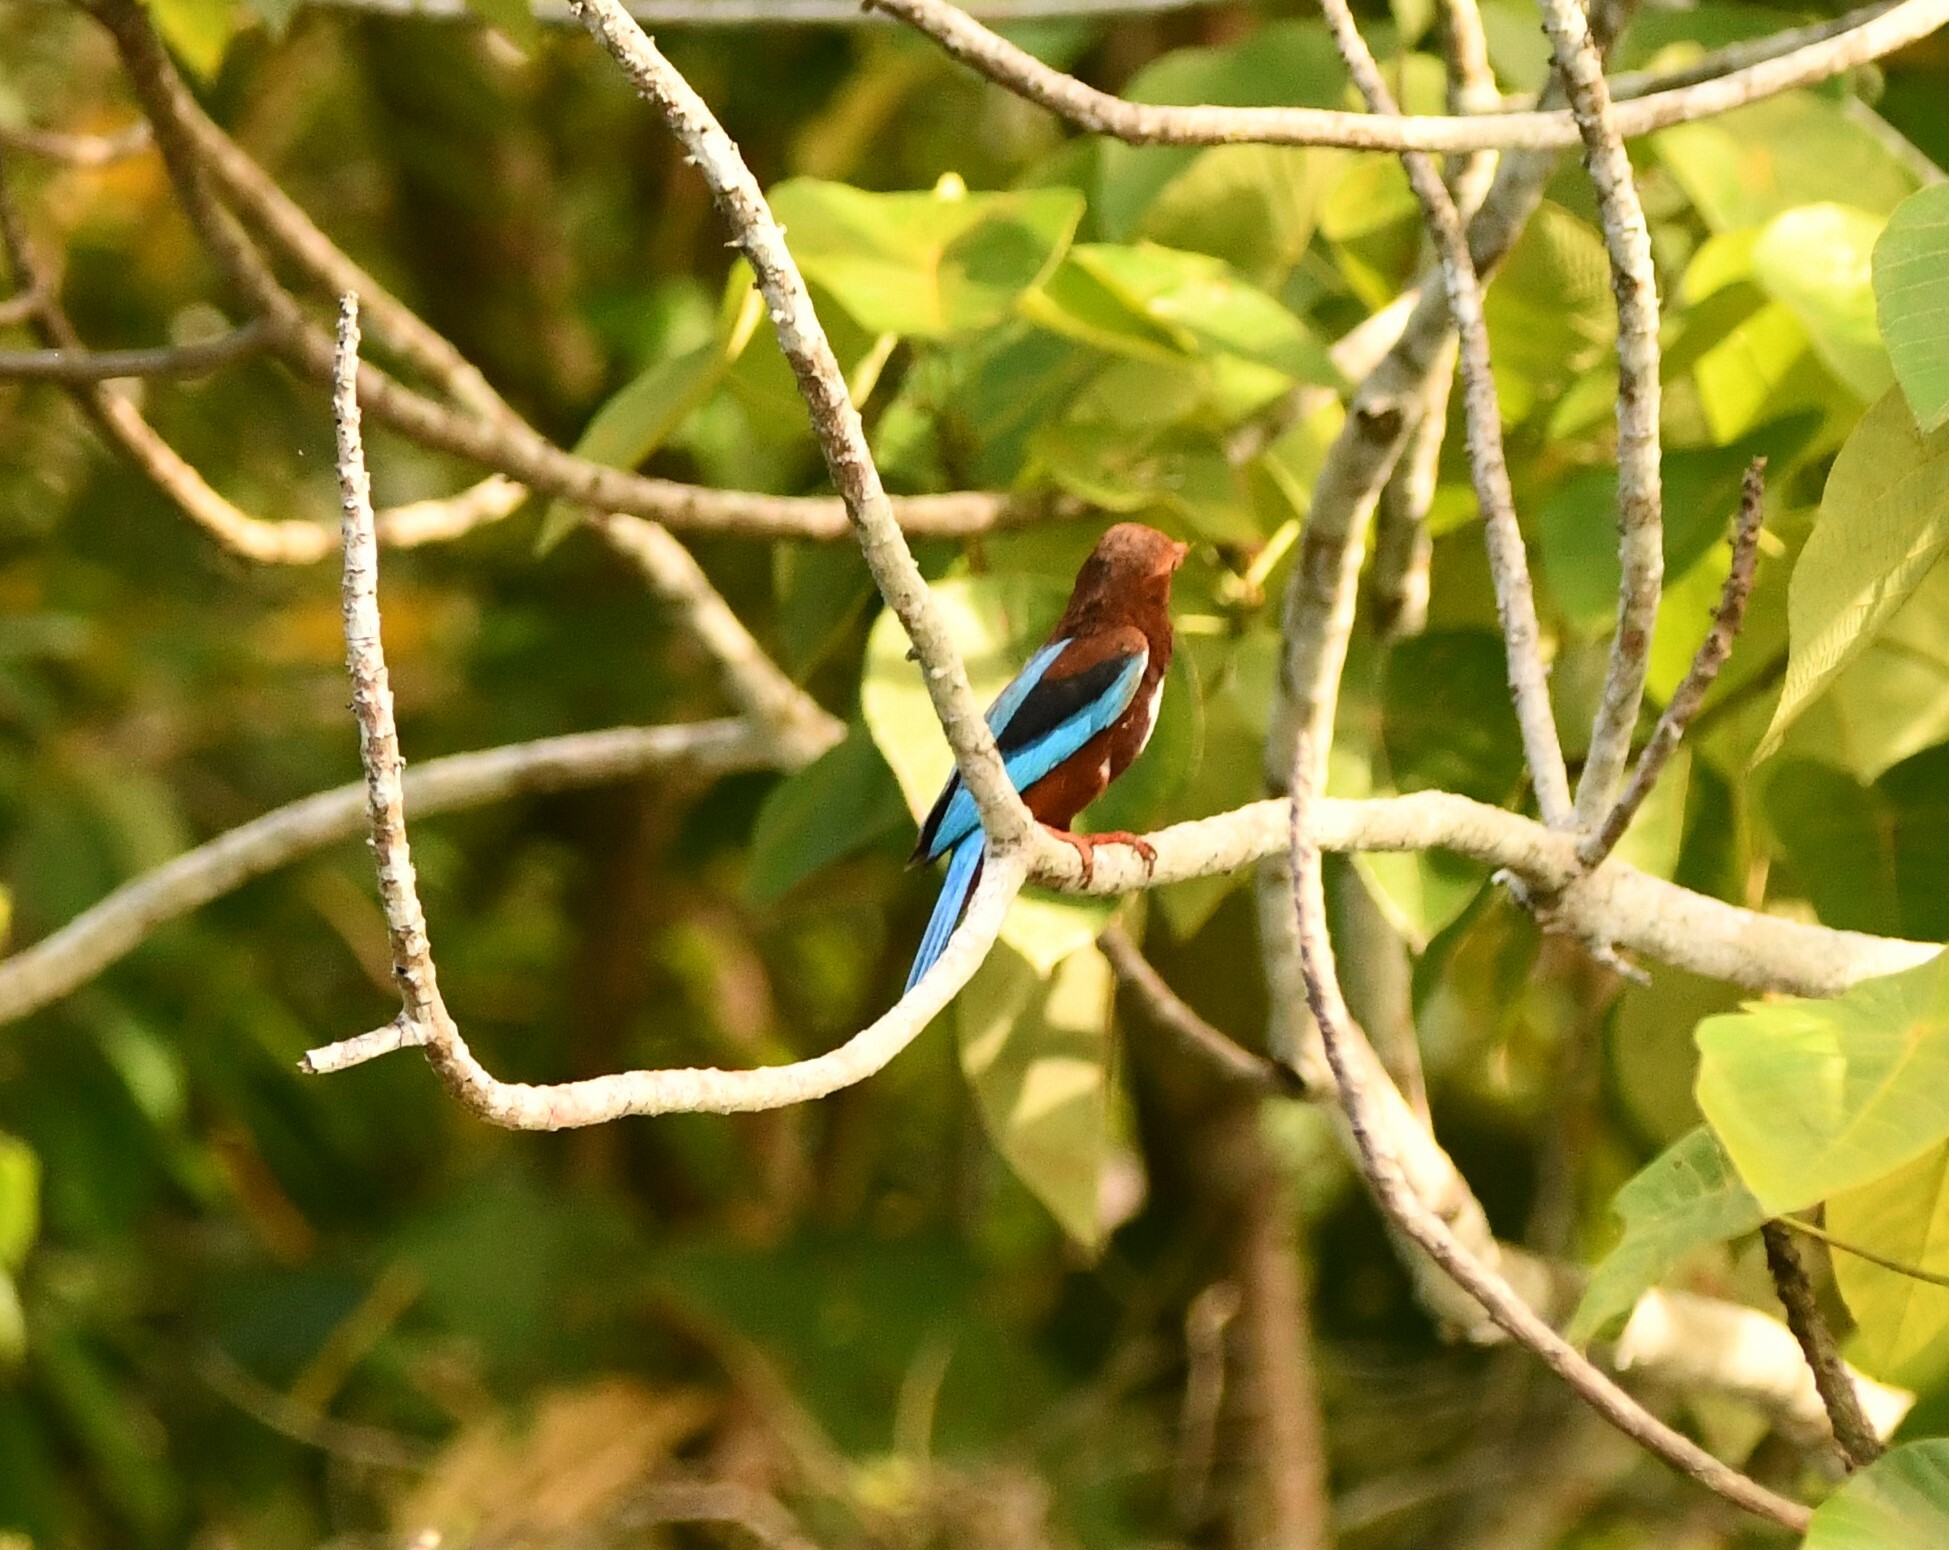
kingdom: Animalia
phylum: Chordata
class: Aves
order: Coraciiformes
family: Alcedinidae
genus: Halcyon
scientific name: Halcyon smyrnensis
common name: White-throated kingfisher
